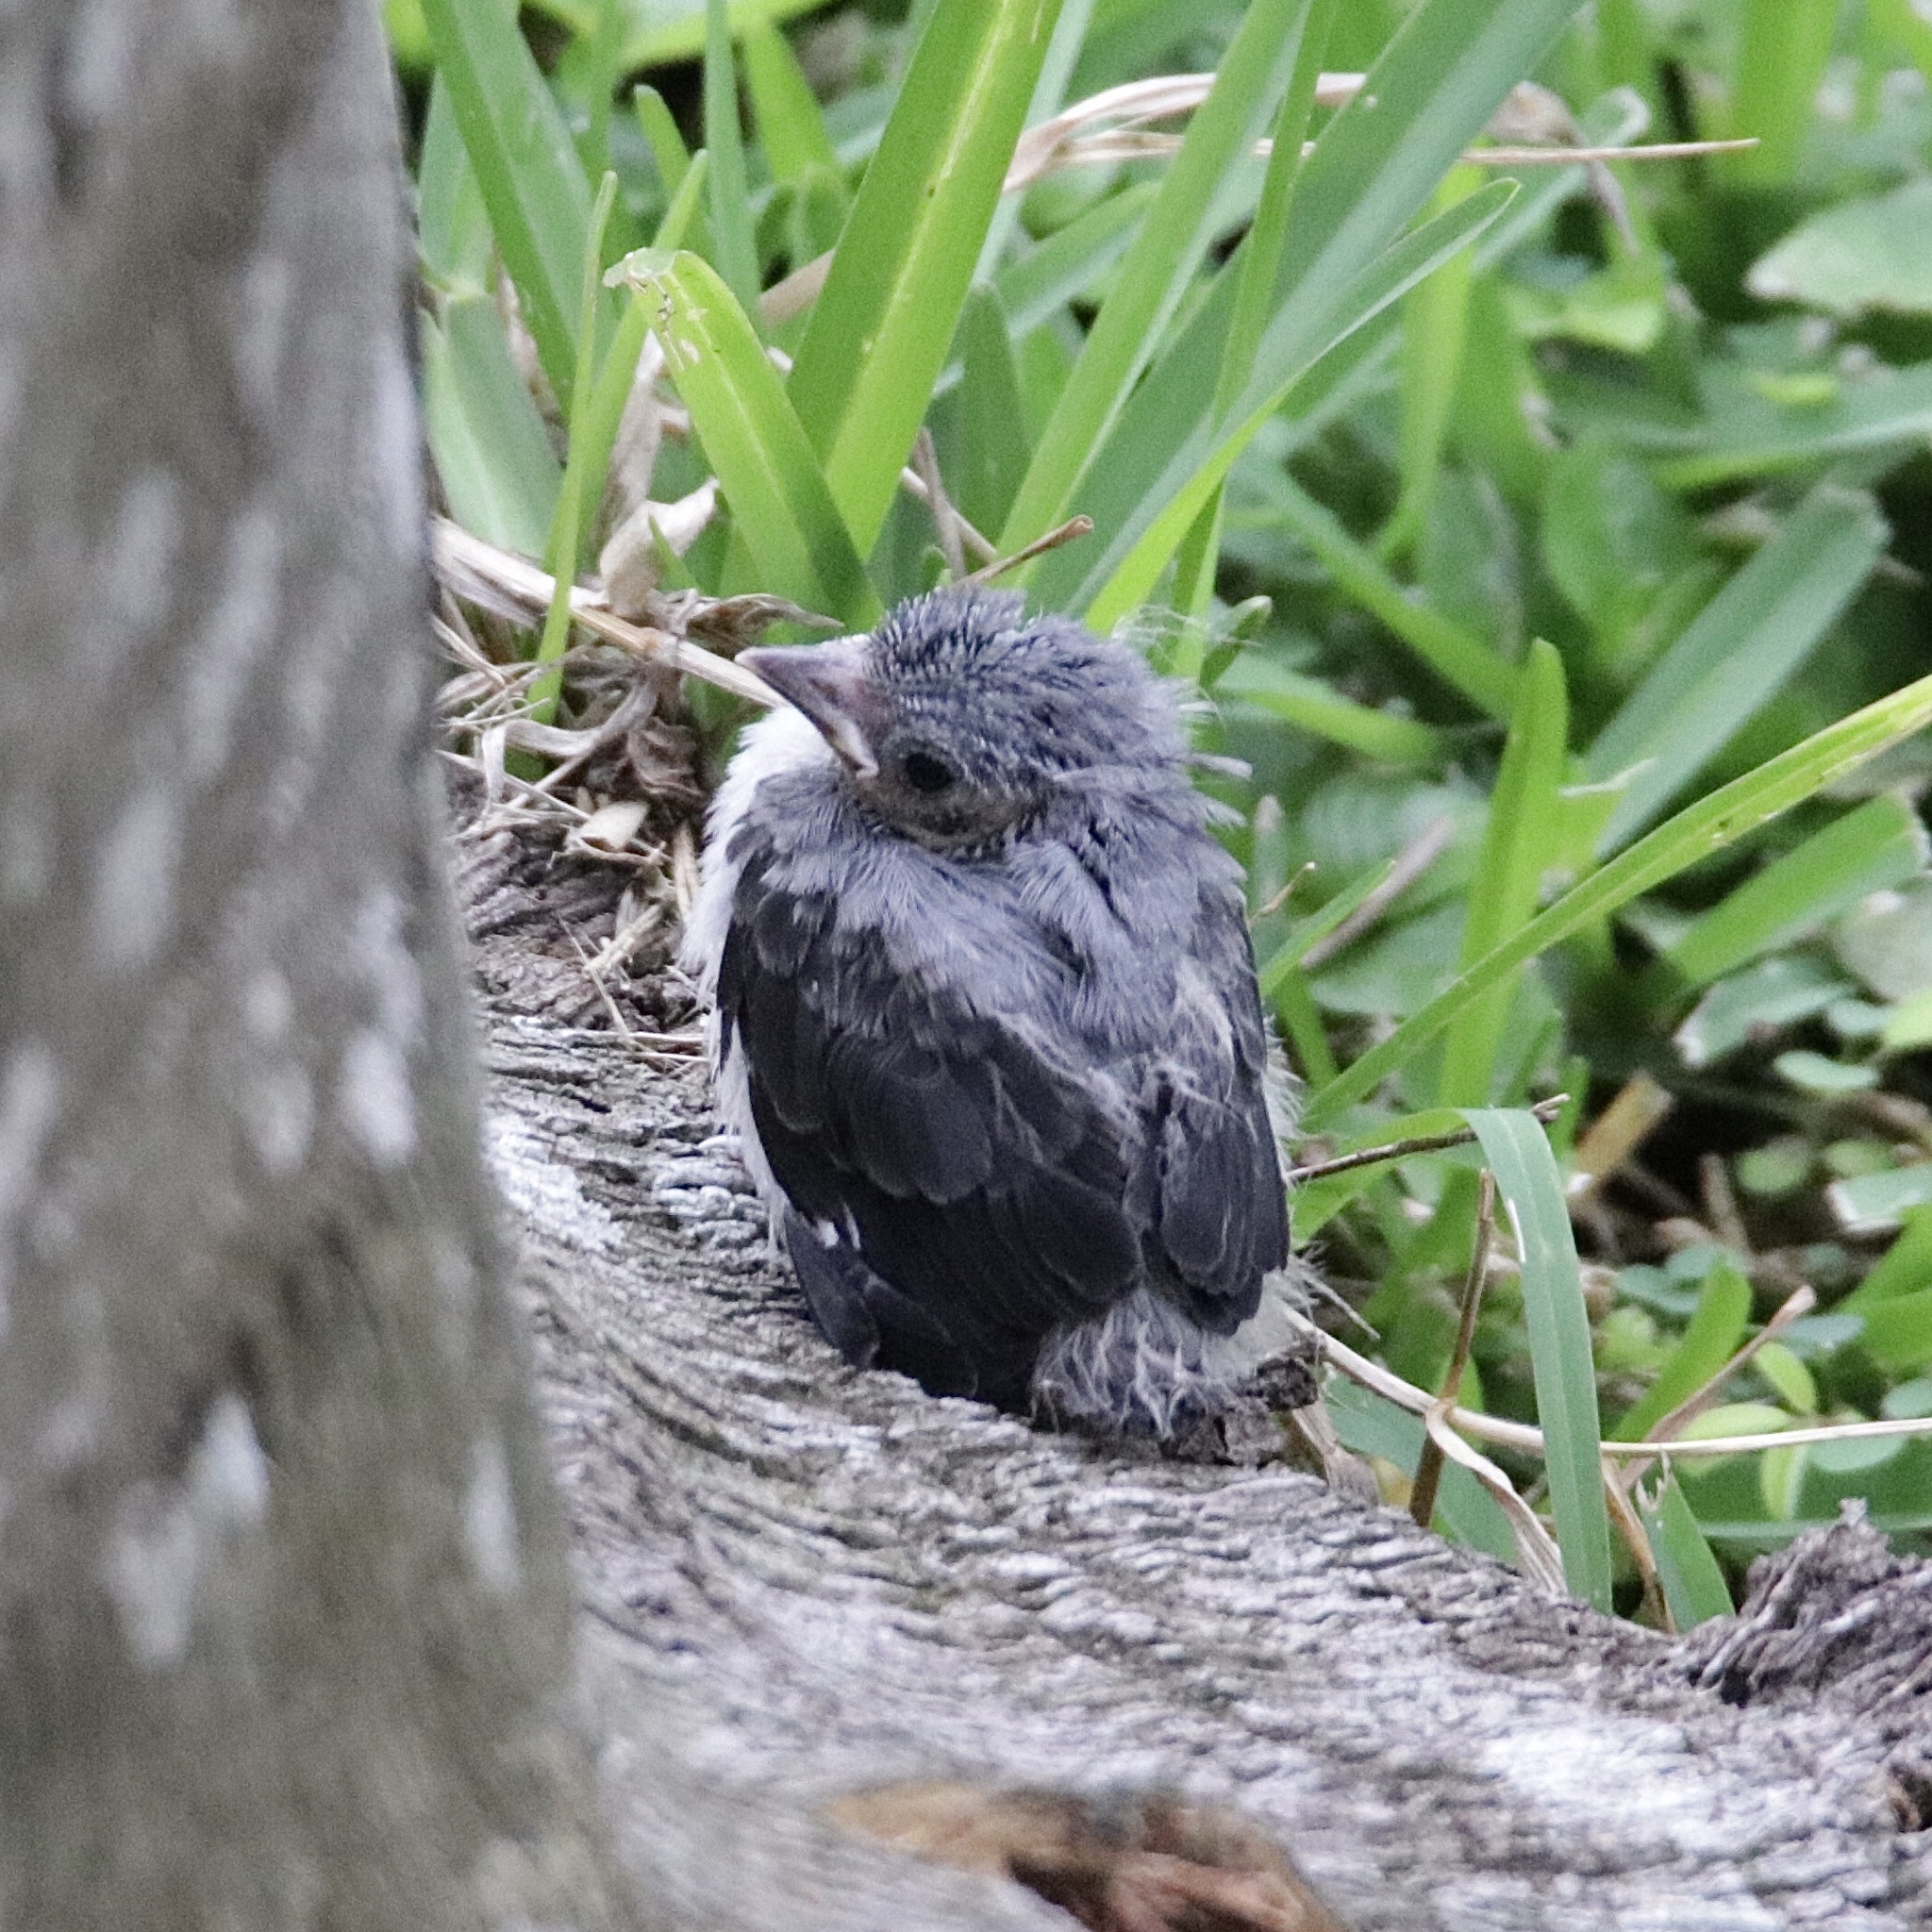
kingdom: Animalia
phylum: Chordata
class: Aves
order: Passeriformes
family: Thraupidae
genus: Tangara
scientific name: Tangara inornata
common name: Plain-colored tanager
